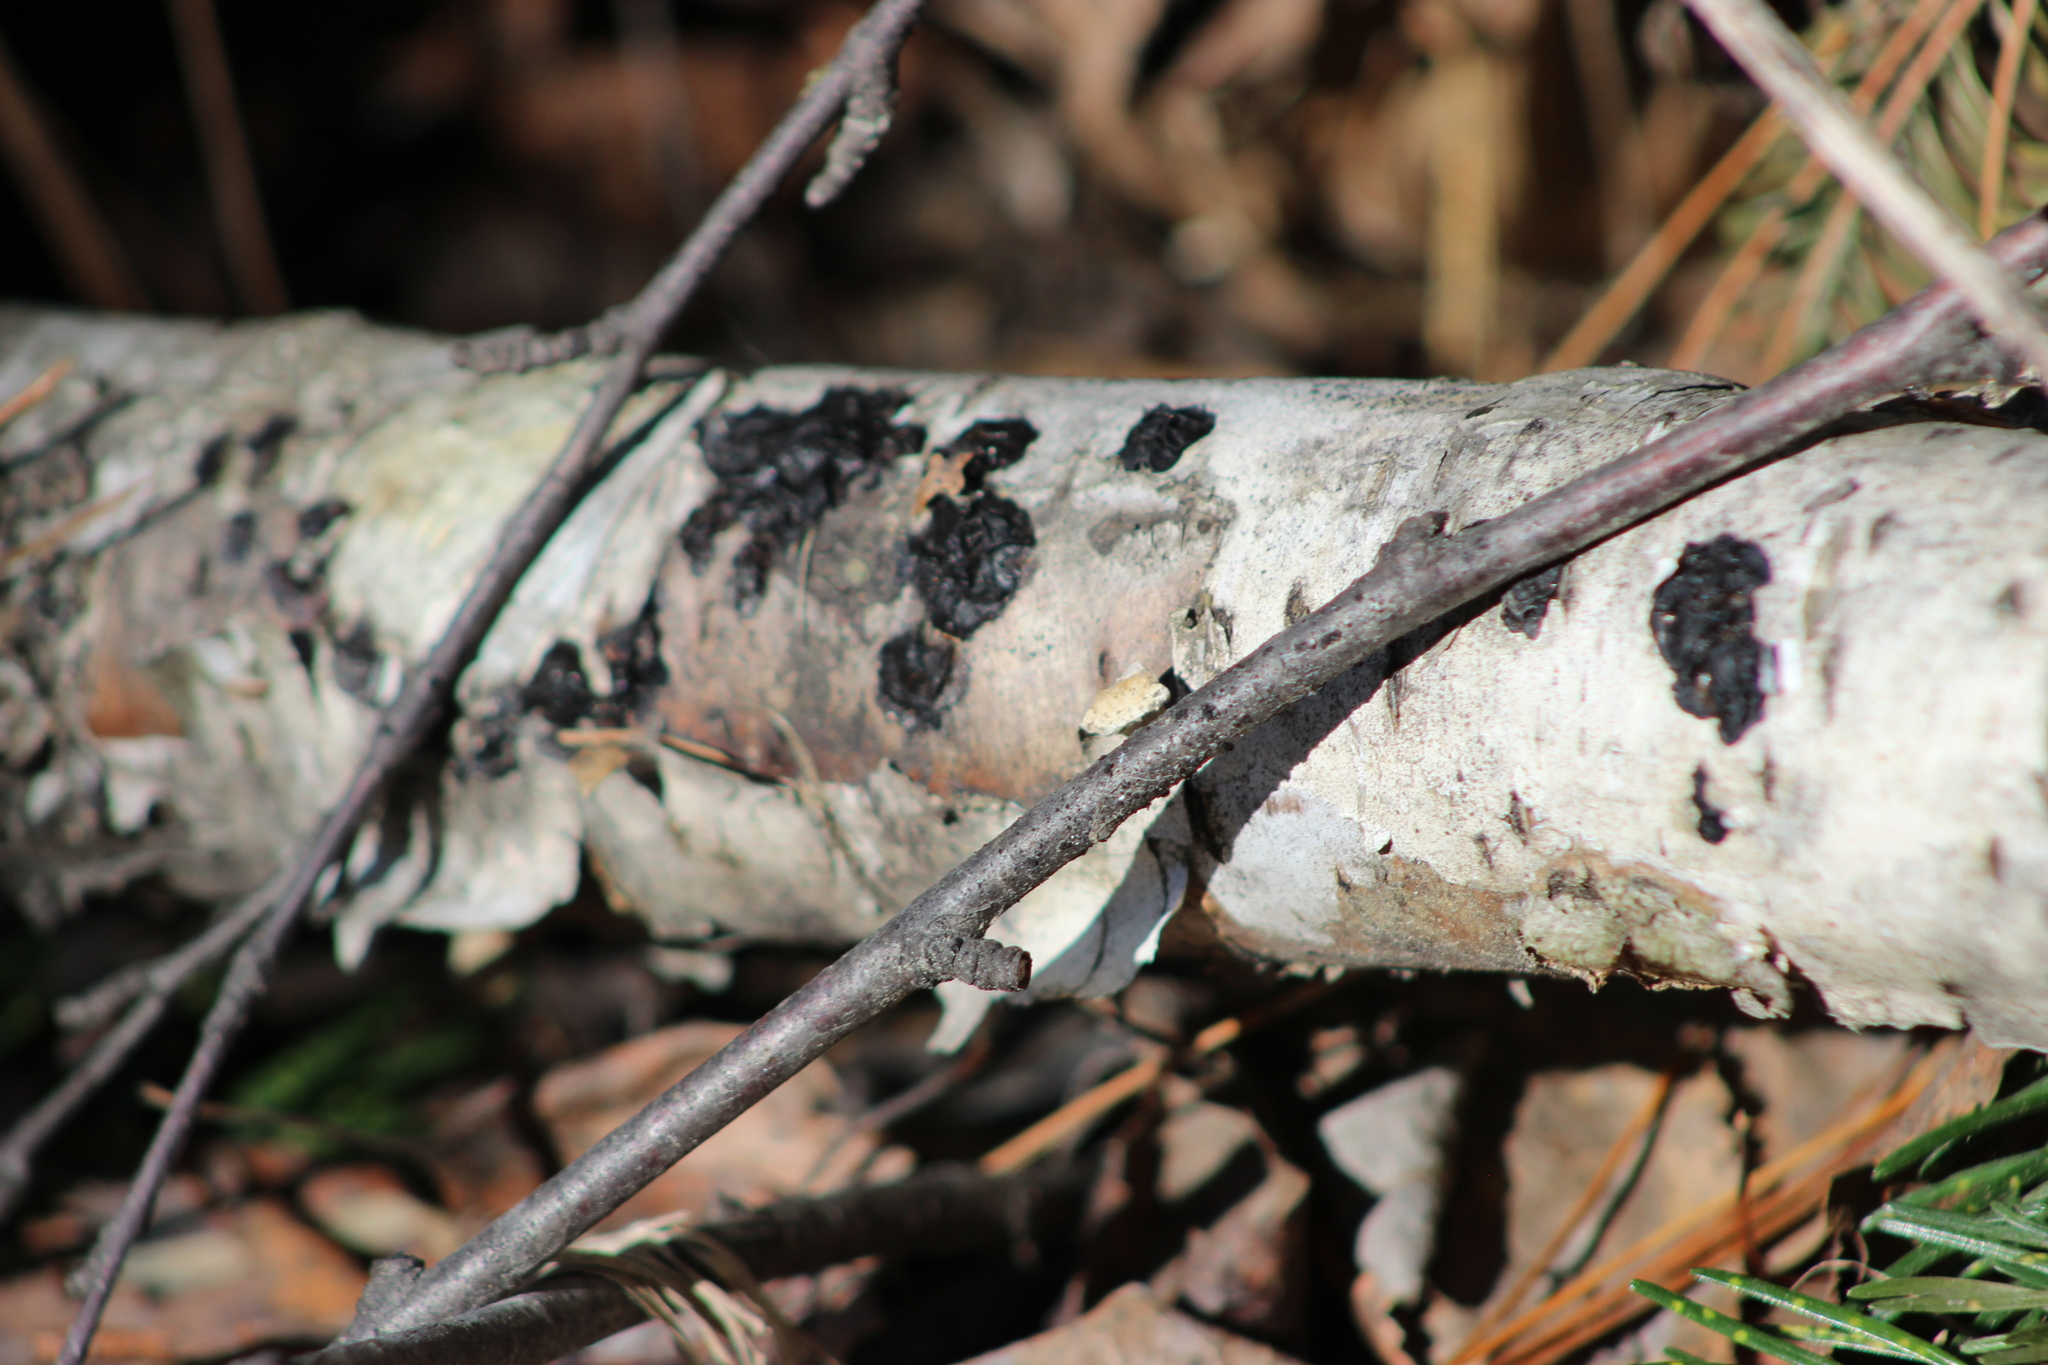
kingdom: Fungi
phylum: Basidiomycota
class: Agaricomycetes
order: Auriculariales
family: Auriculariaceae
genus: Exidia
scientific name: Exidia glandulosa
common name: Witches' butter
